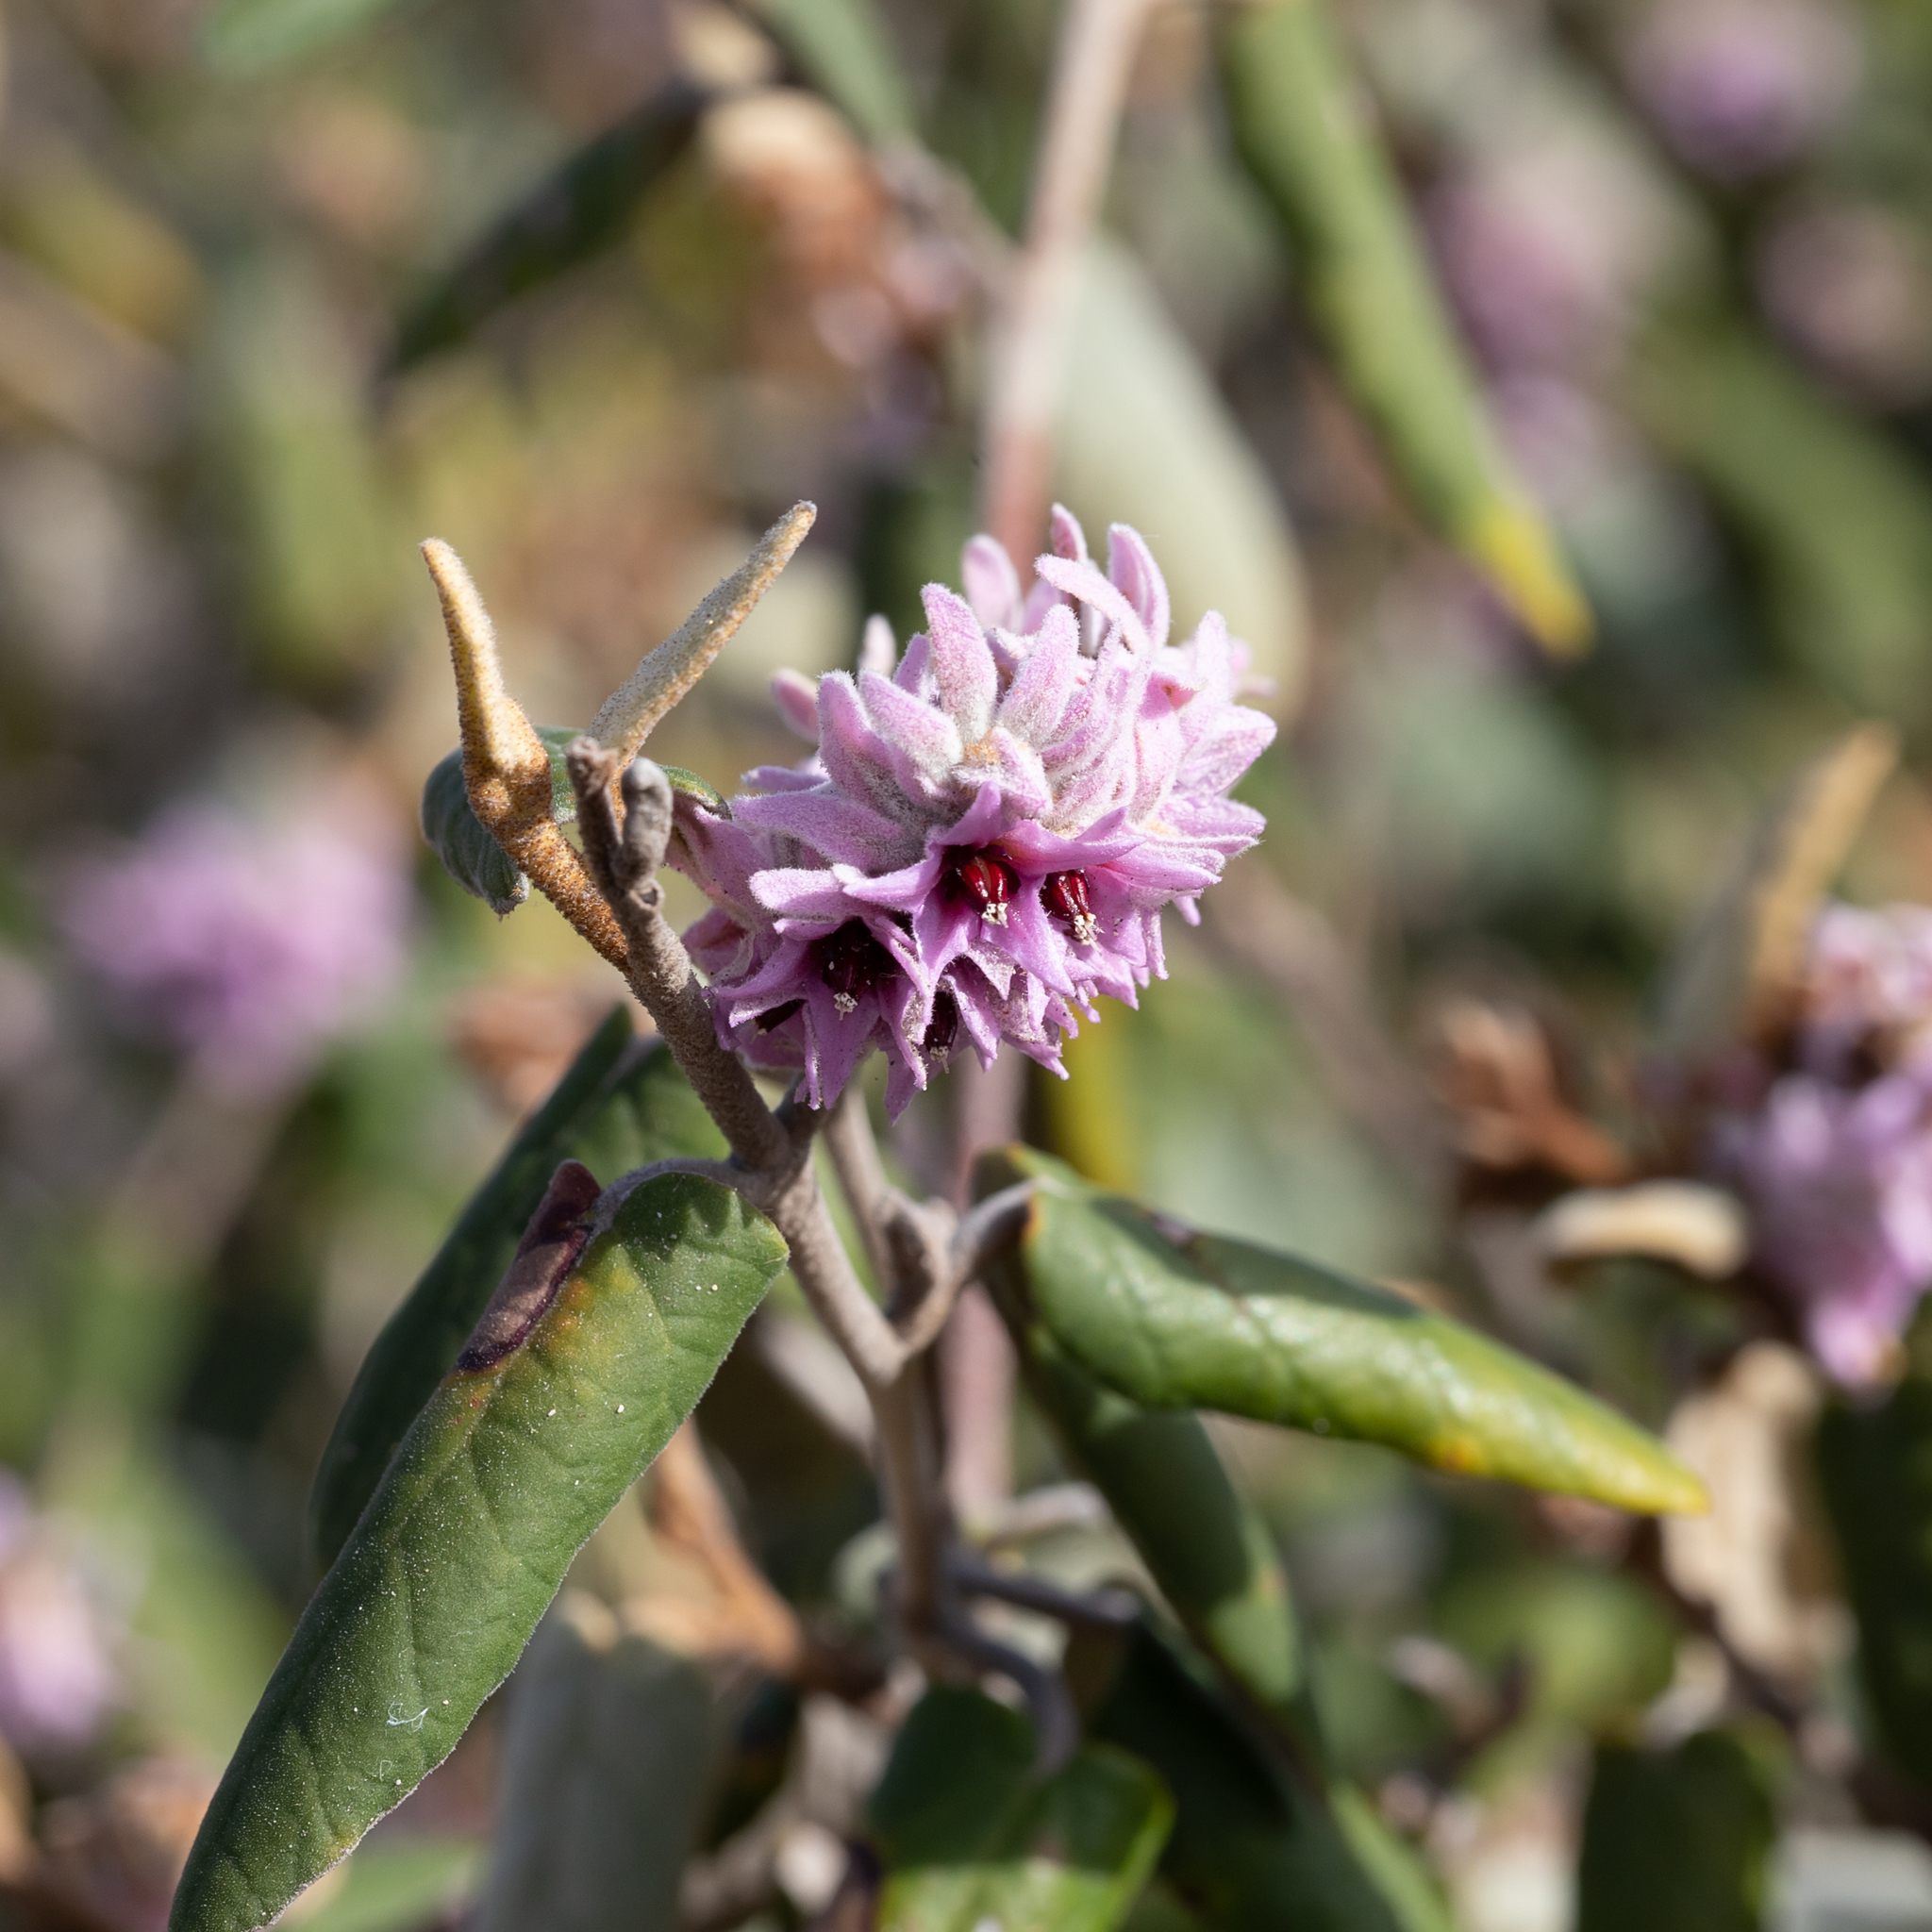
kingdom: Plantae
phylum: Tracheophyta
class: Magnoliopsida
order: Malvales
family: Malvaceae
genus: Lasiopetalum
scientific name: Lasiopetalum discolor
